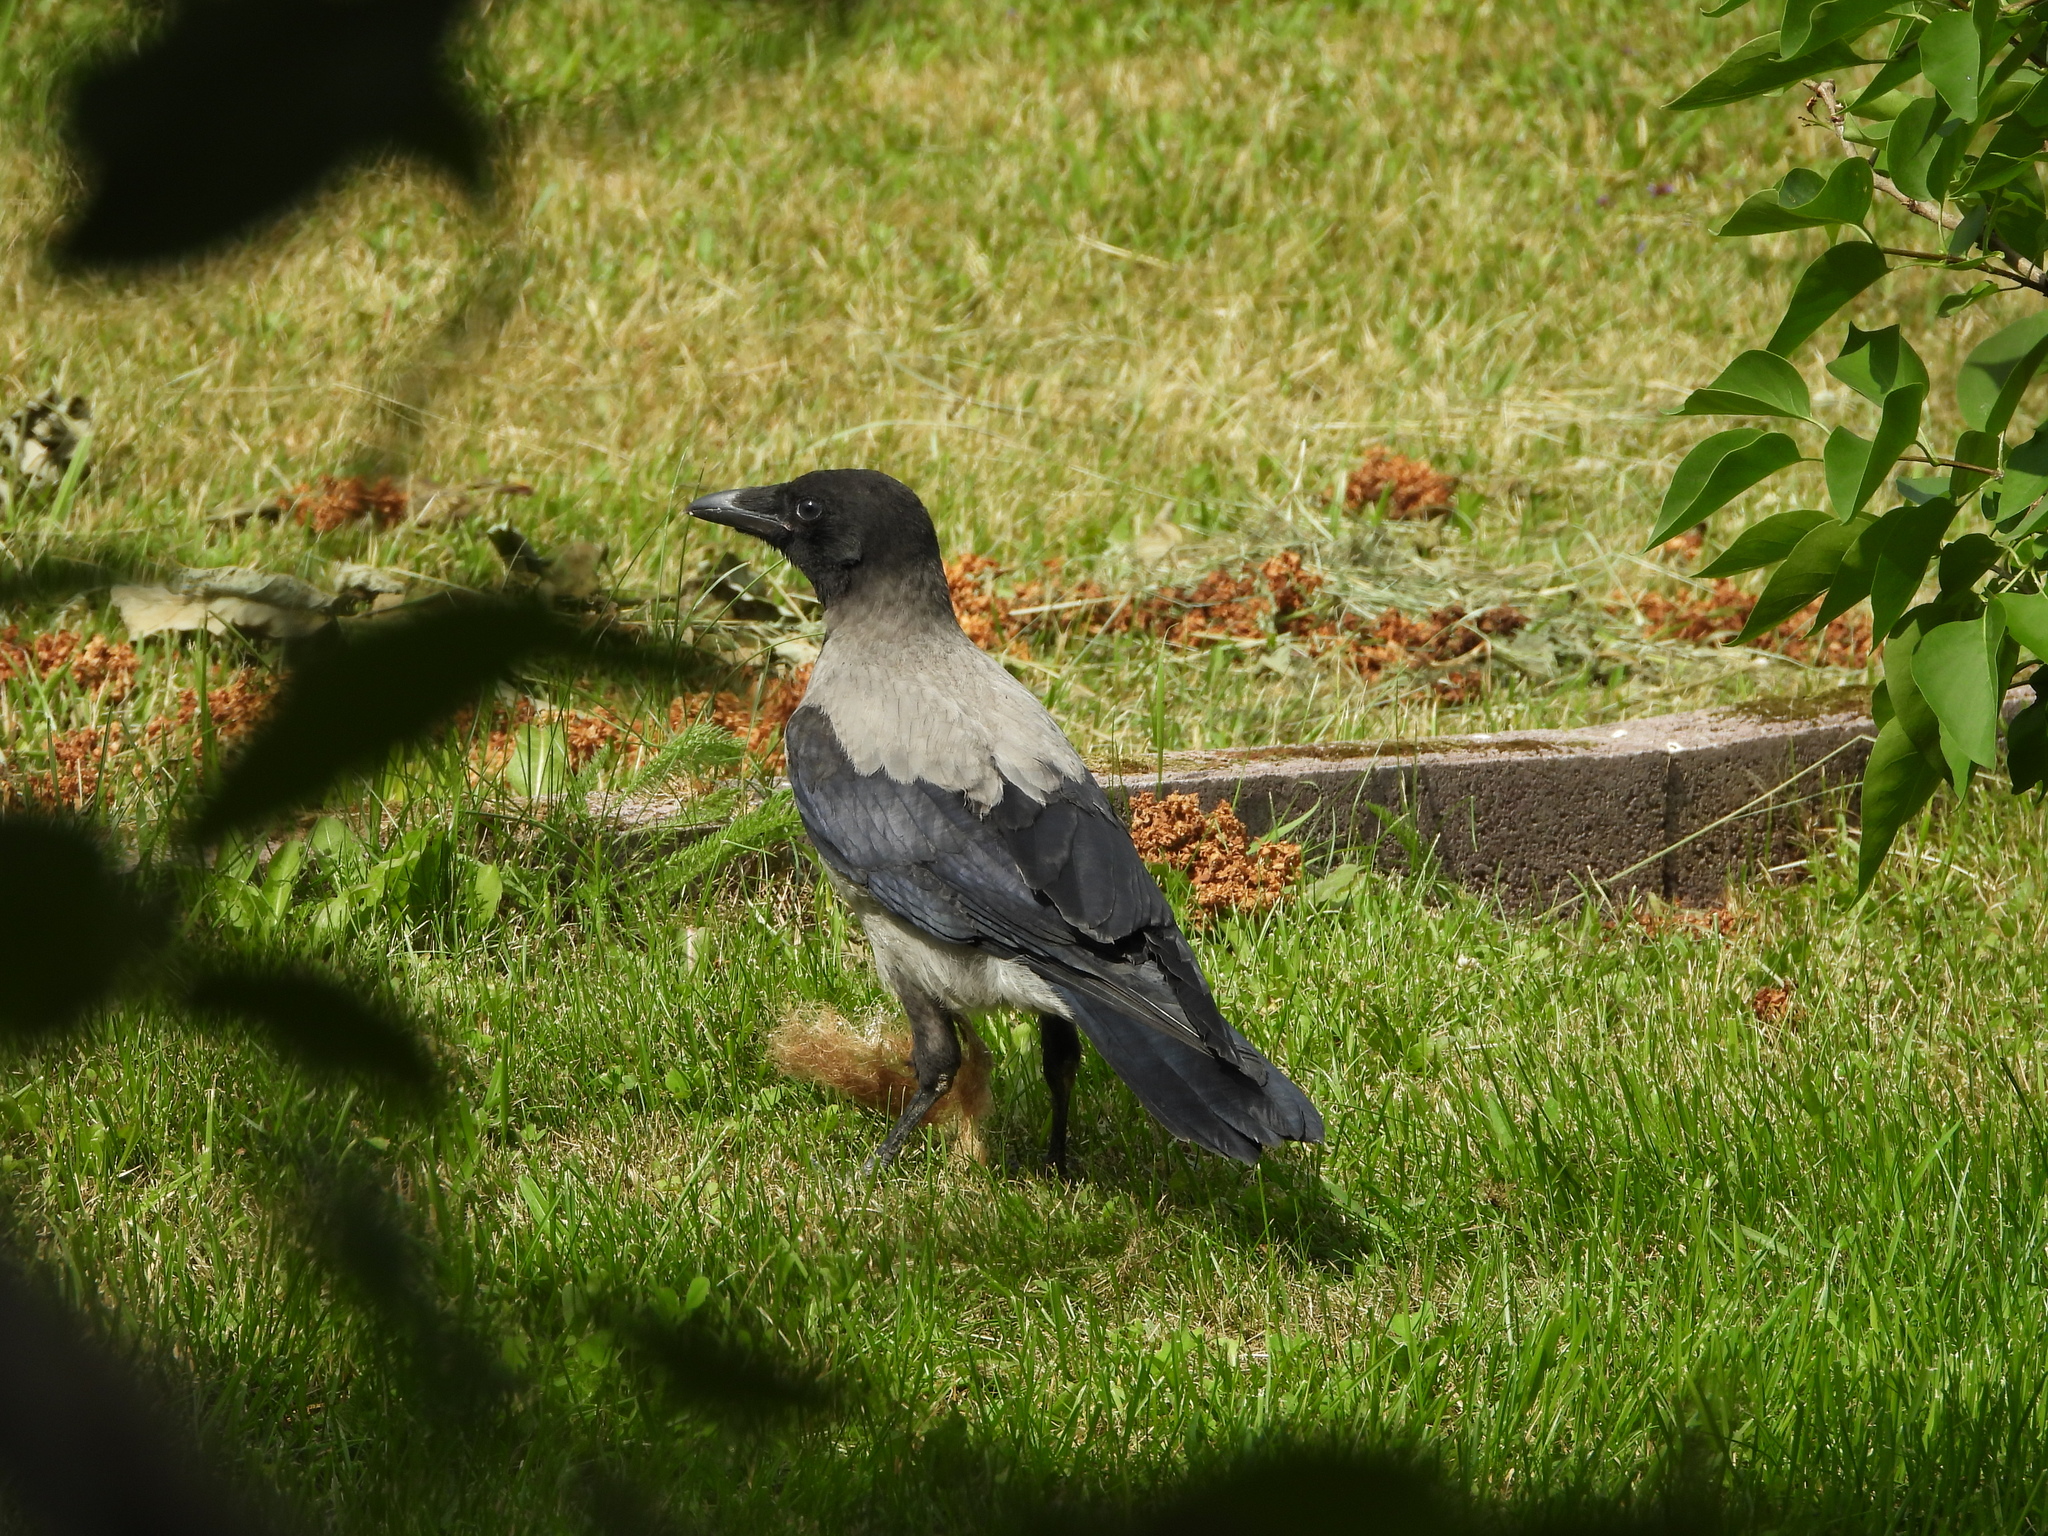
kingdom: Animalia
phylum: Chordata
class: Aves
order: Passeriformes
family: Corvidae
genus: Corvus
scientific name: Corvus cornix
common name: Hooded crow
